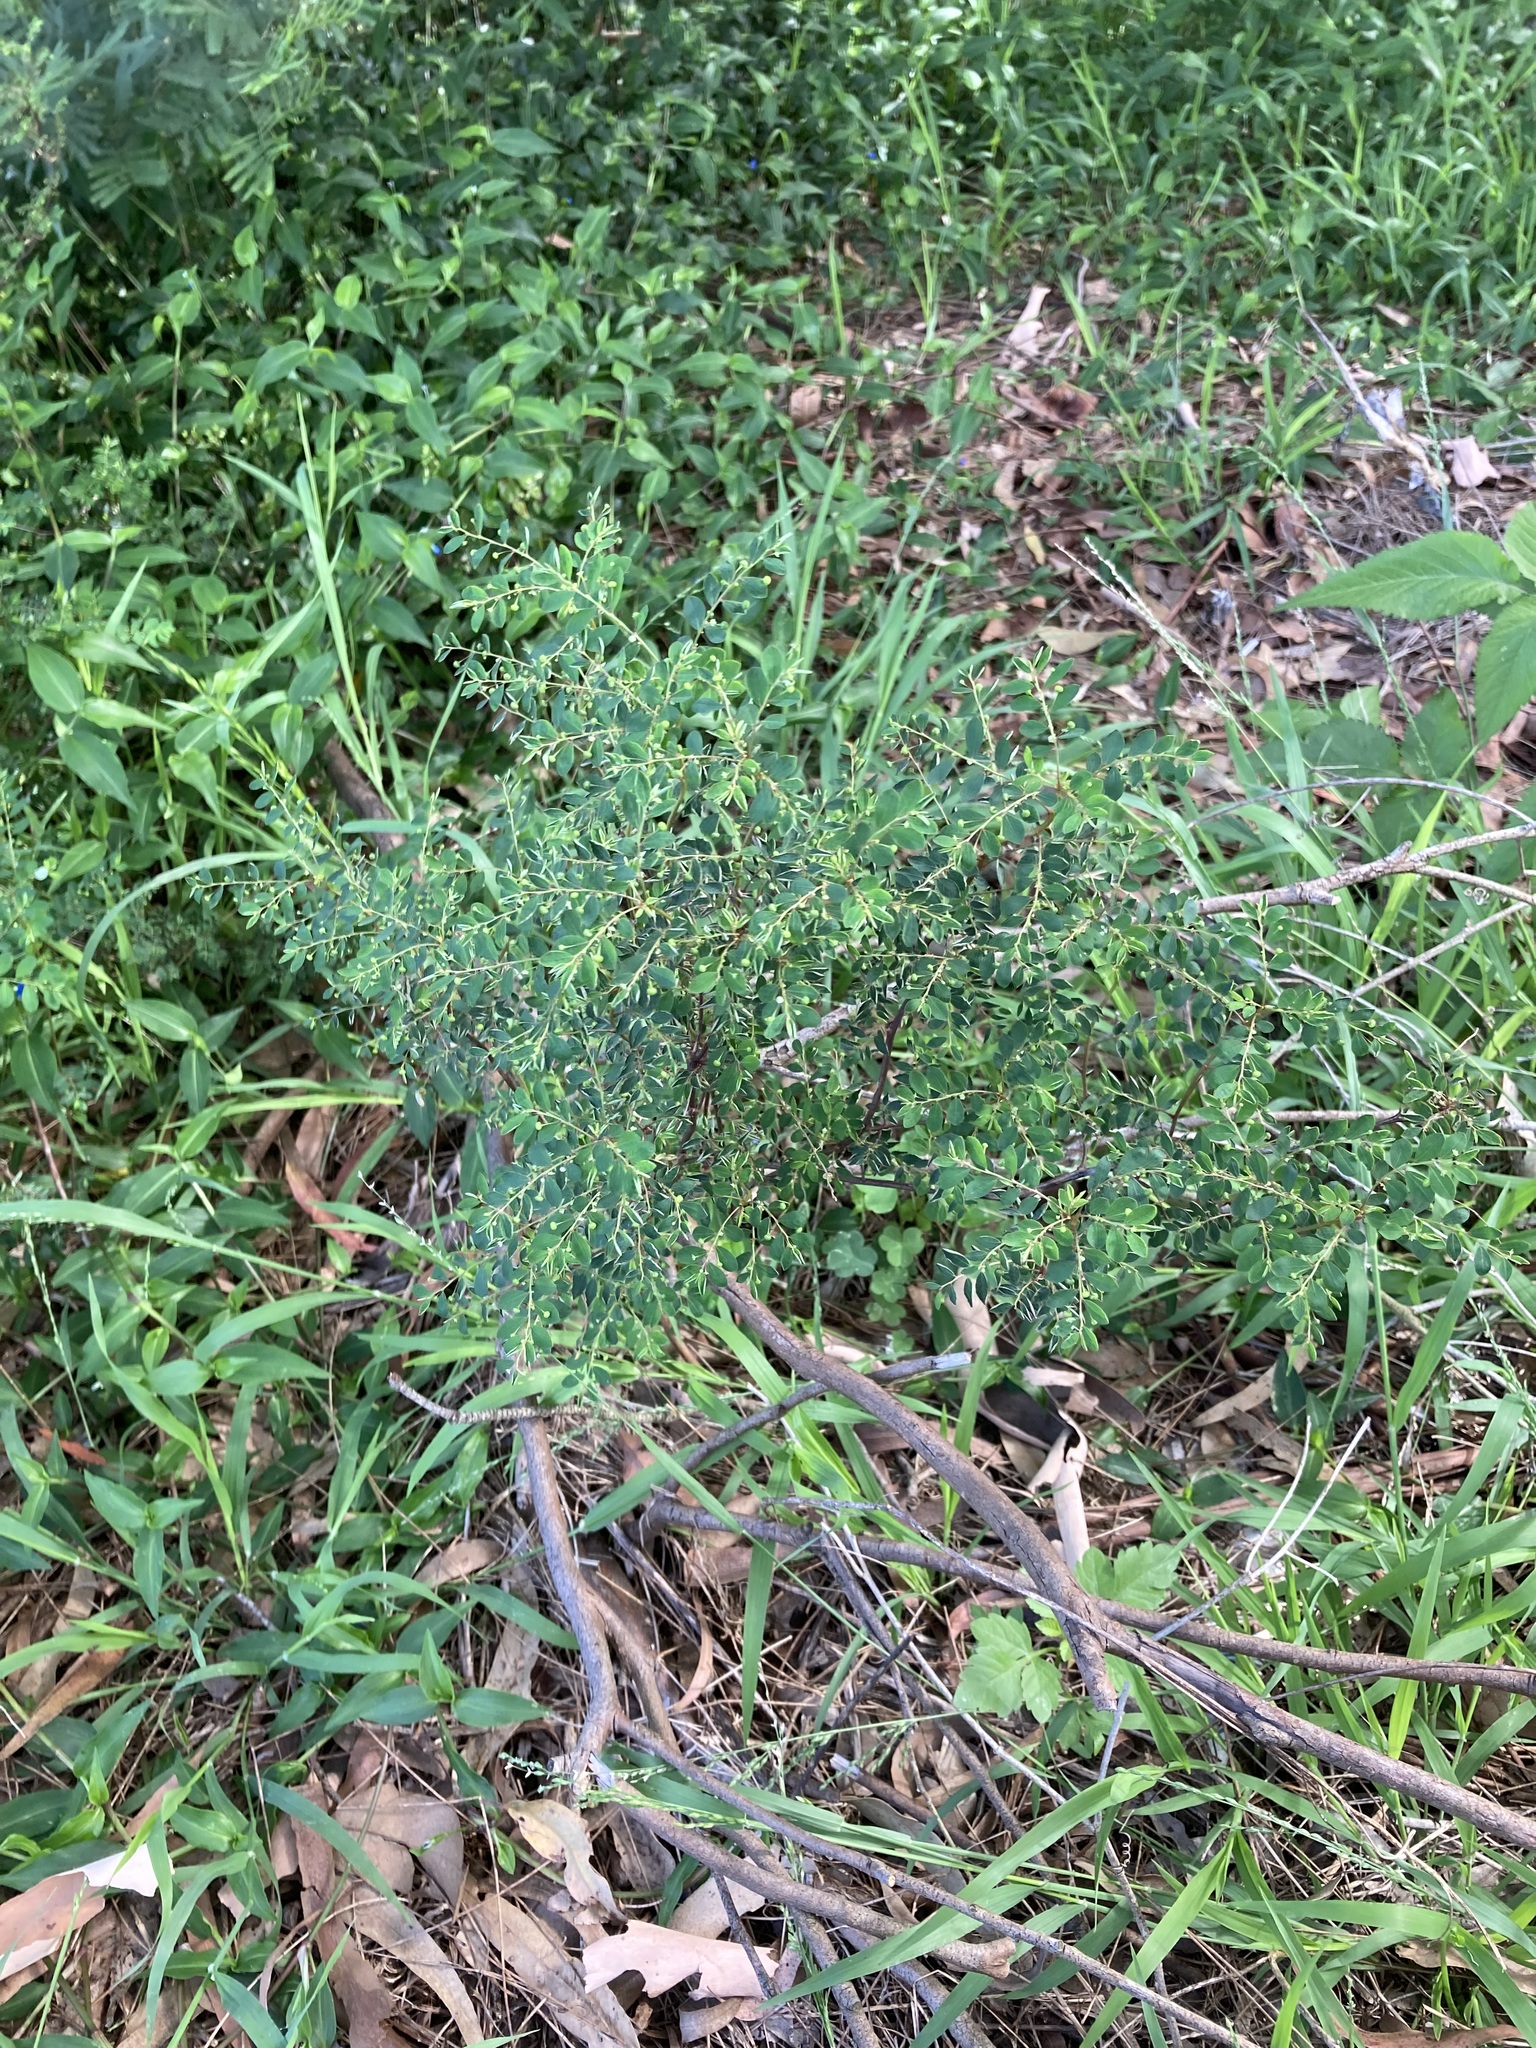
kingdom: Plantae
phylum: Tracheophyta
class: Magnoliopsida
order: Malpighiales
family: Phyllanthaceae
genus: Phyllanthus
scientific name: Phyllanthus tenellus
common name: Mascarene island leaf-flower
